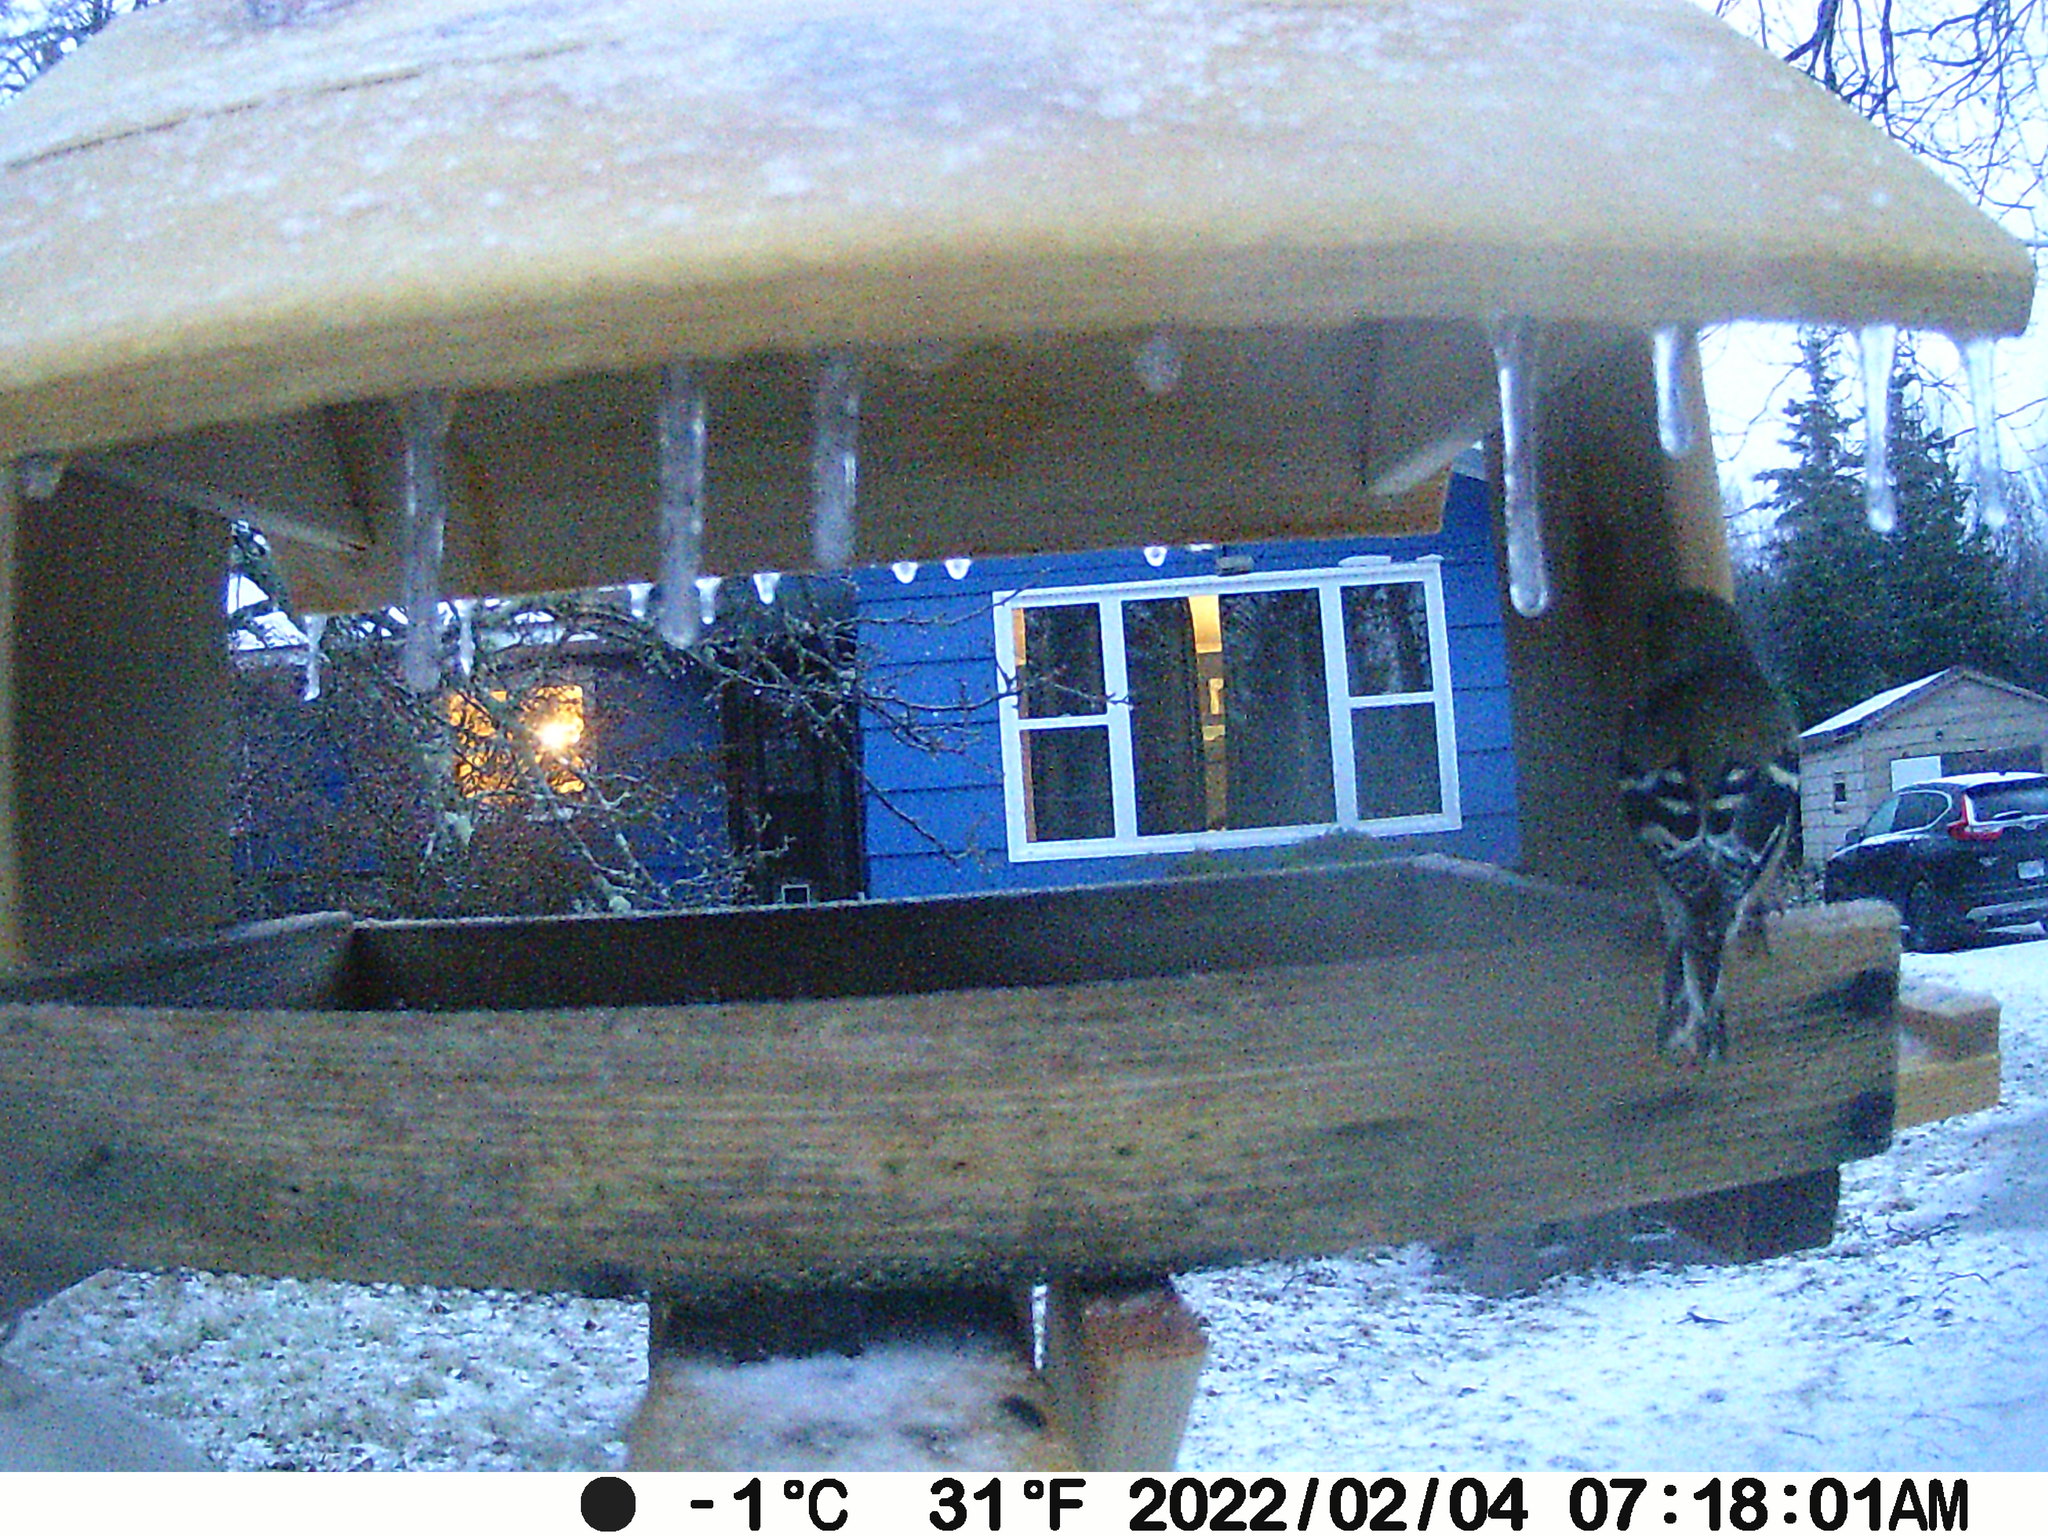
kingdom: Animalia
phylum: Chordata
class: Aves
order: Passeriformes
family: Fringillidae
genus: Spinus
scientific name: Spinus tristis
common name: American goldfinch
